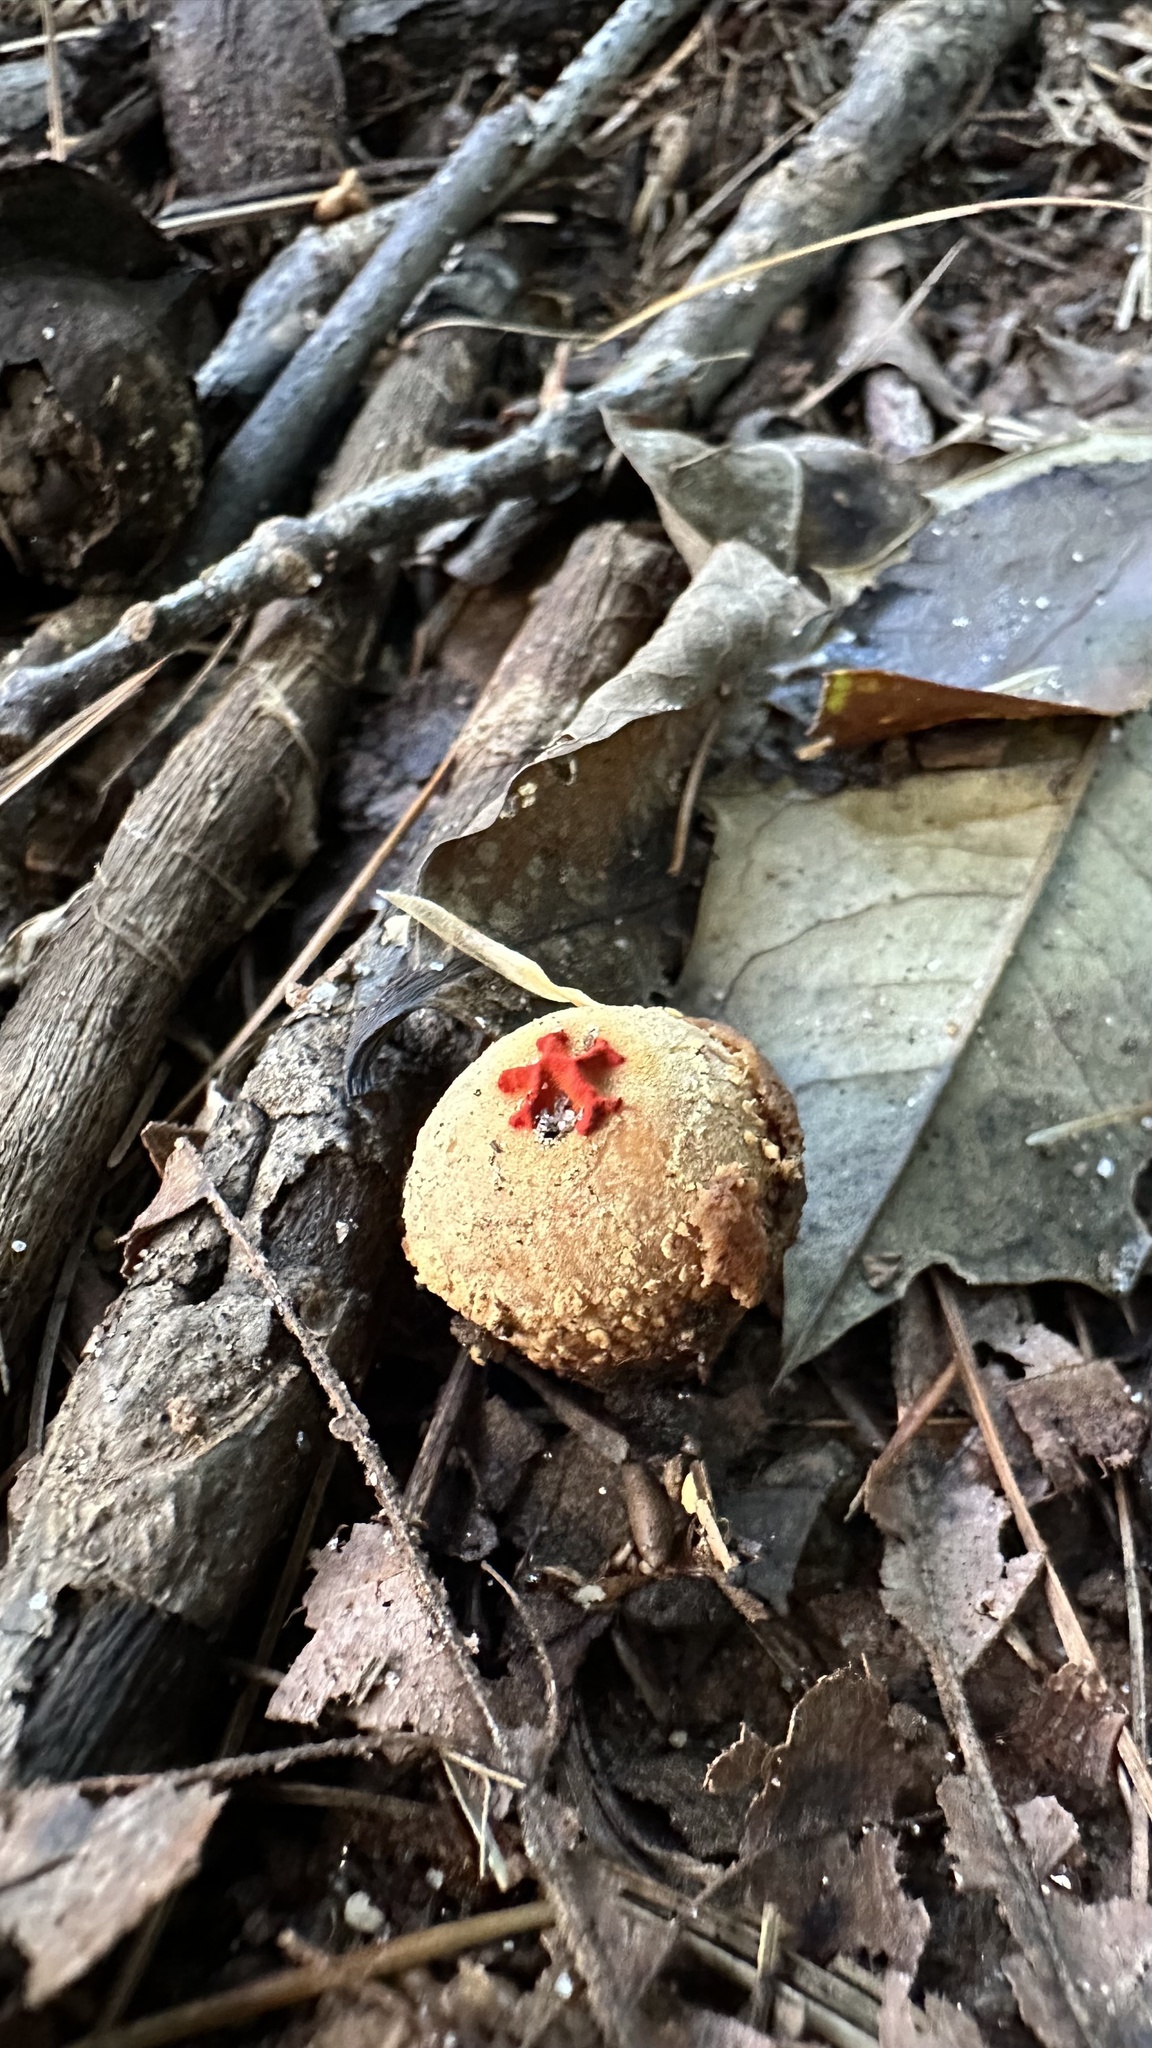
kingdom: Fungi
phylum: Basidiomycota
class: Agaricomycetes
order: Boletales
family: Calostomataceae
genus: Calostoma
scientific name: Calostoma ravenelii
